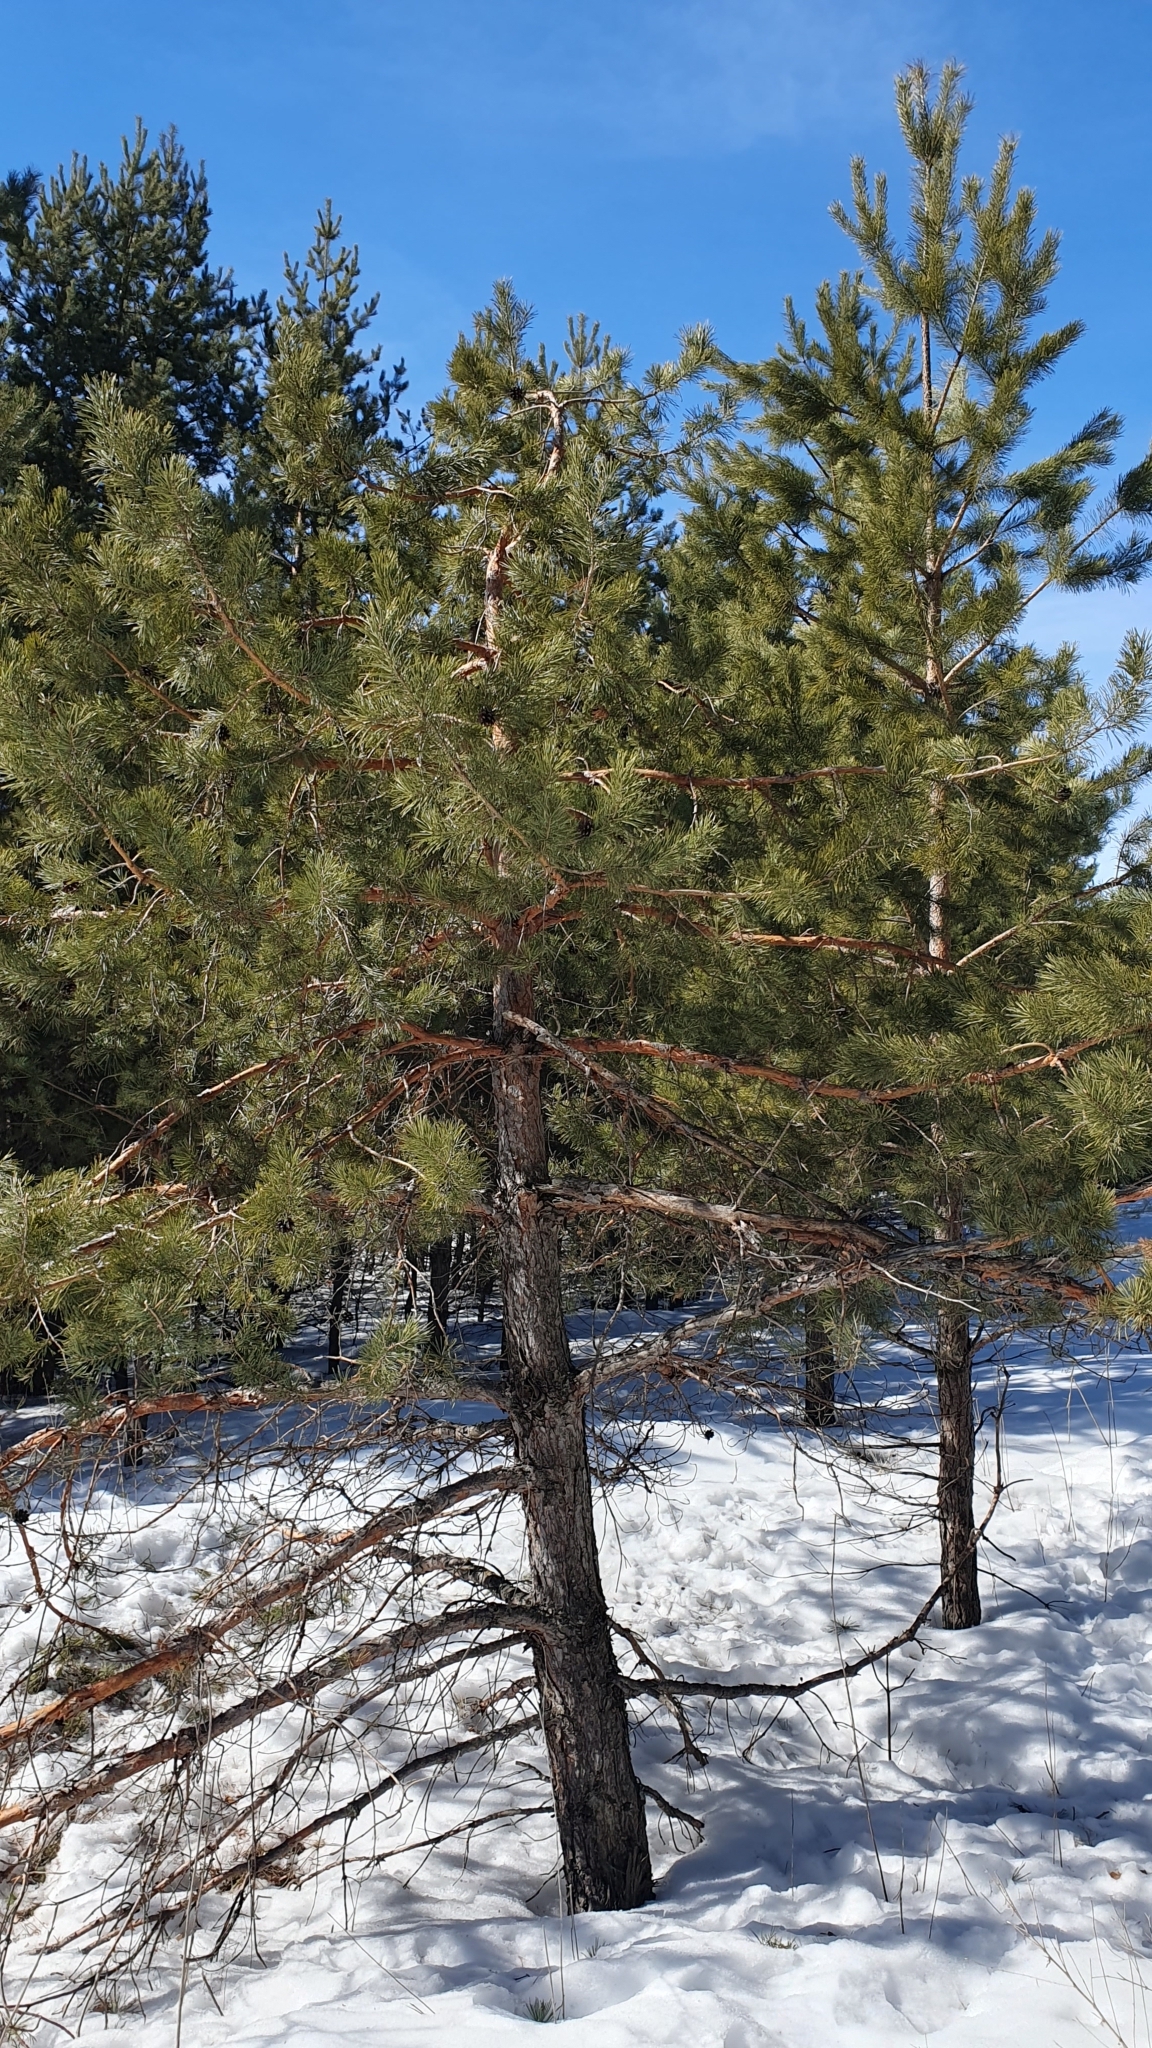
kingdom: Plantae
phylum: Tracheophyta
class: Pinopsida
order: Pinales
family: Pinaceae
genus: Pinus
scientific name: Pinus sylvestris
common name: Scots pine
